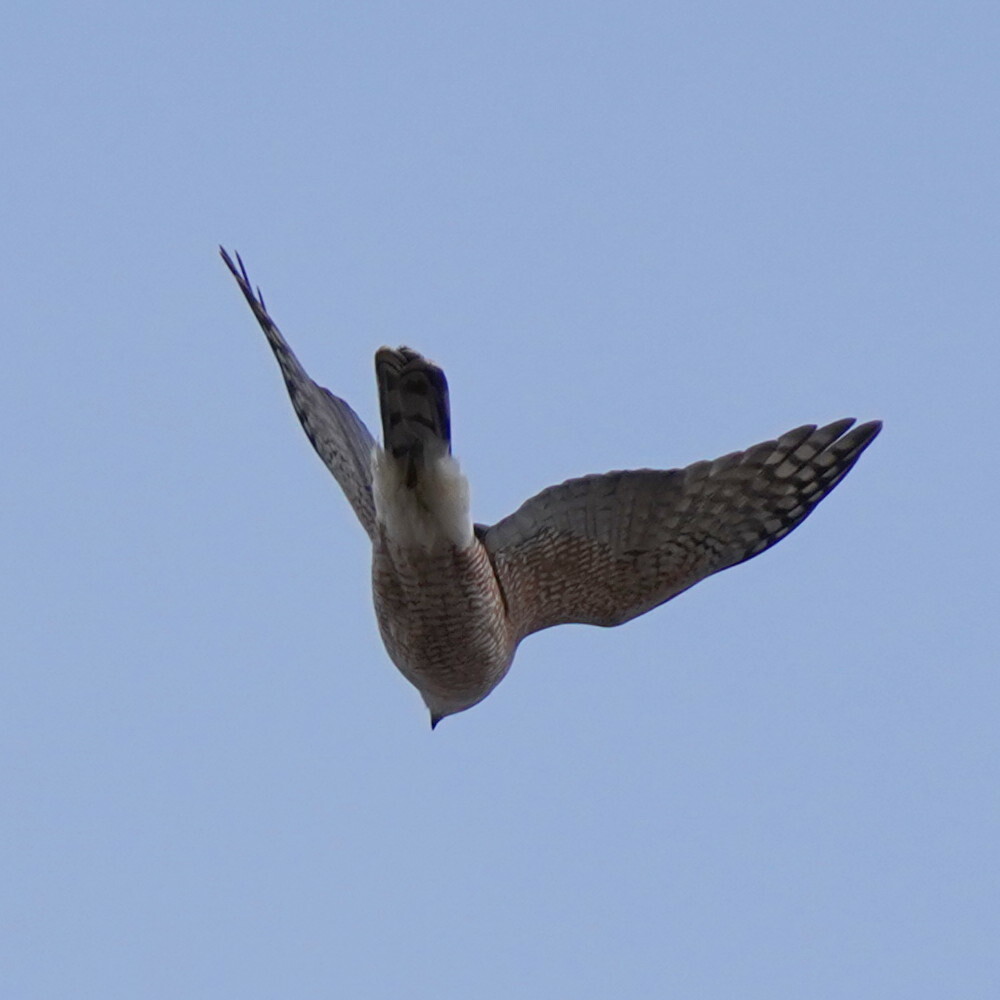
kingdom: Animalia
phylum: Chordata
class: Aves
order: Accipitriformes
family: Accipitridae
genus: Accipiter
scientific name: Accipiter cooperii
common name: Cooper's hawk
